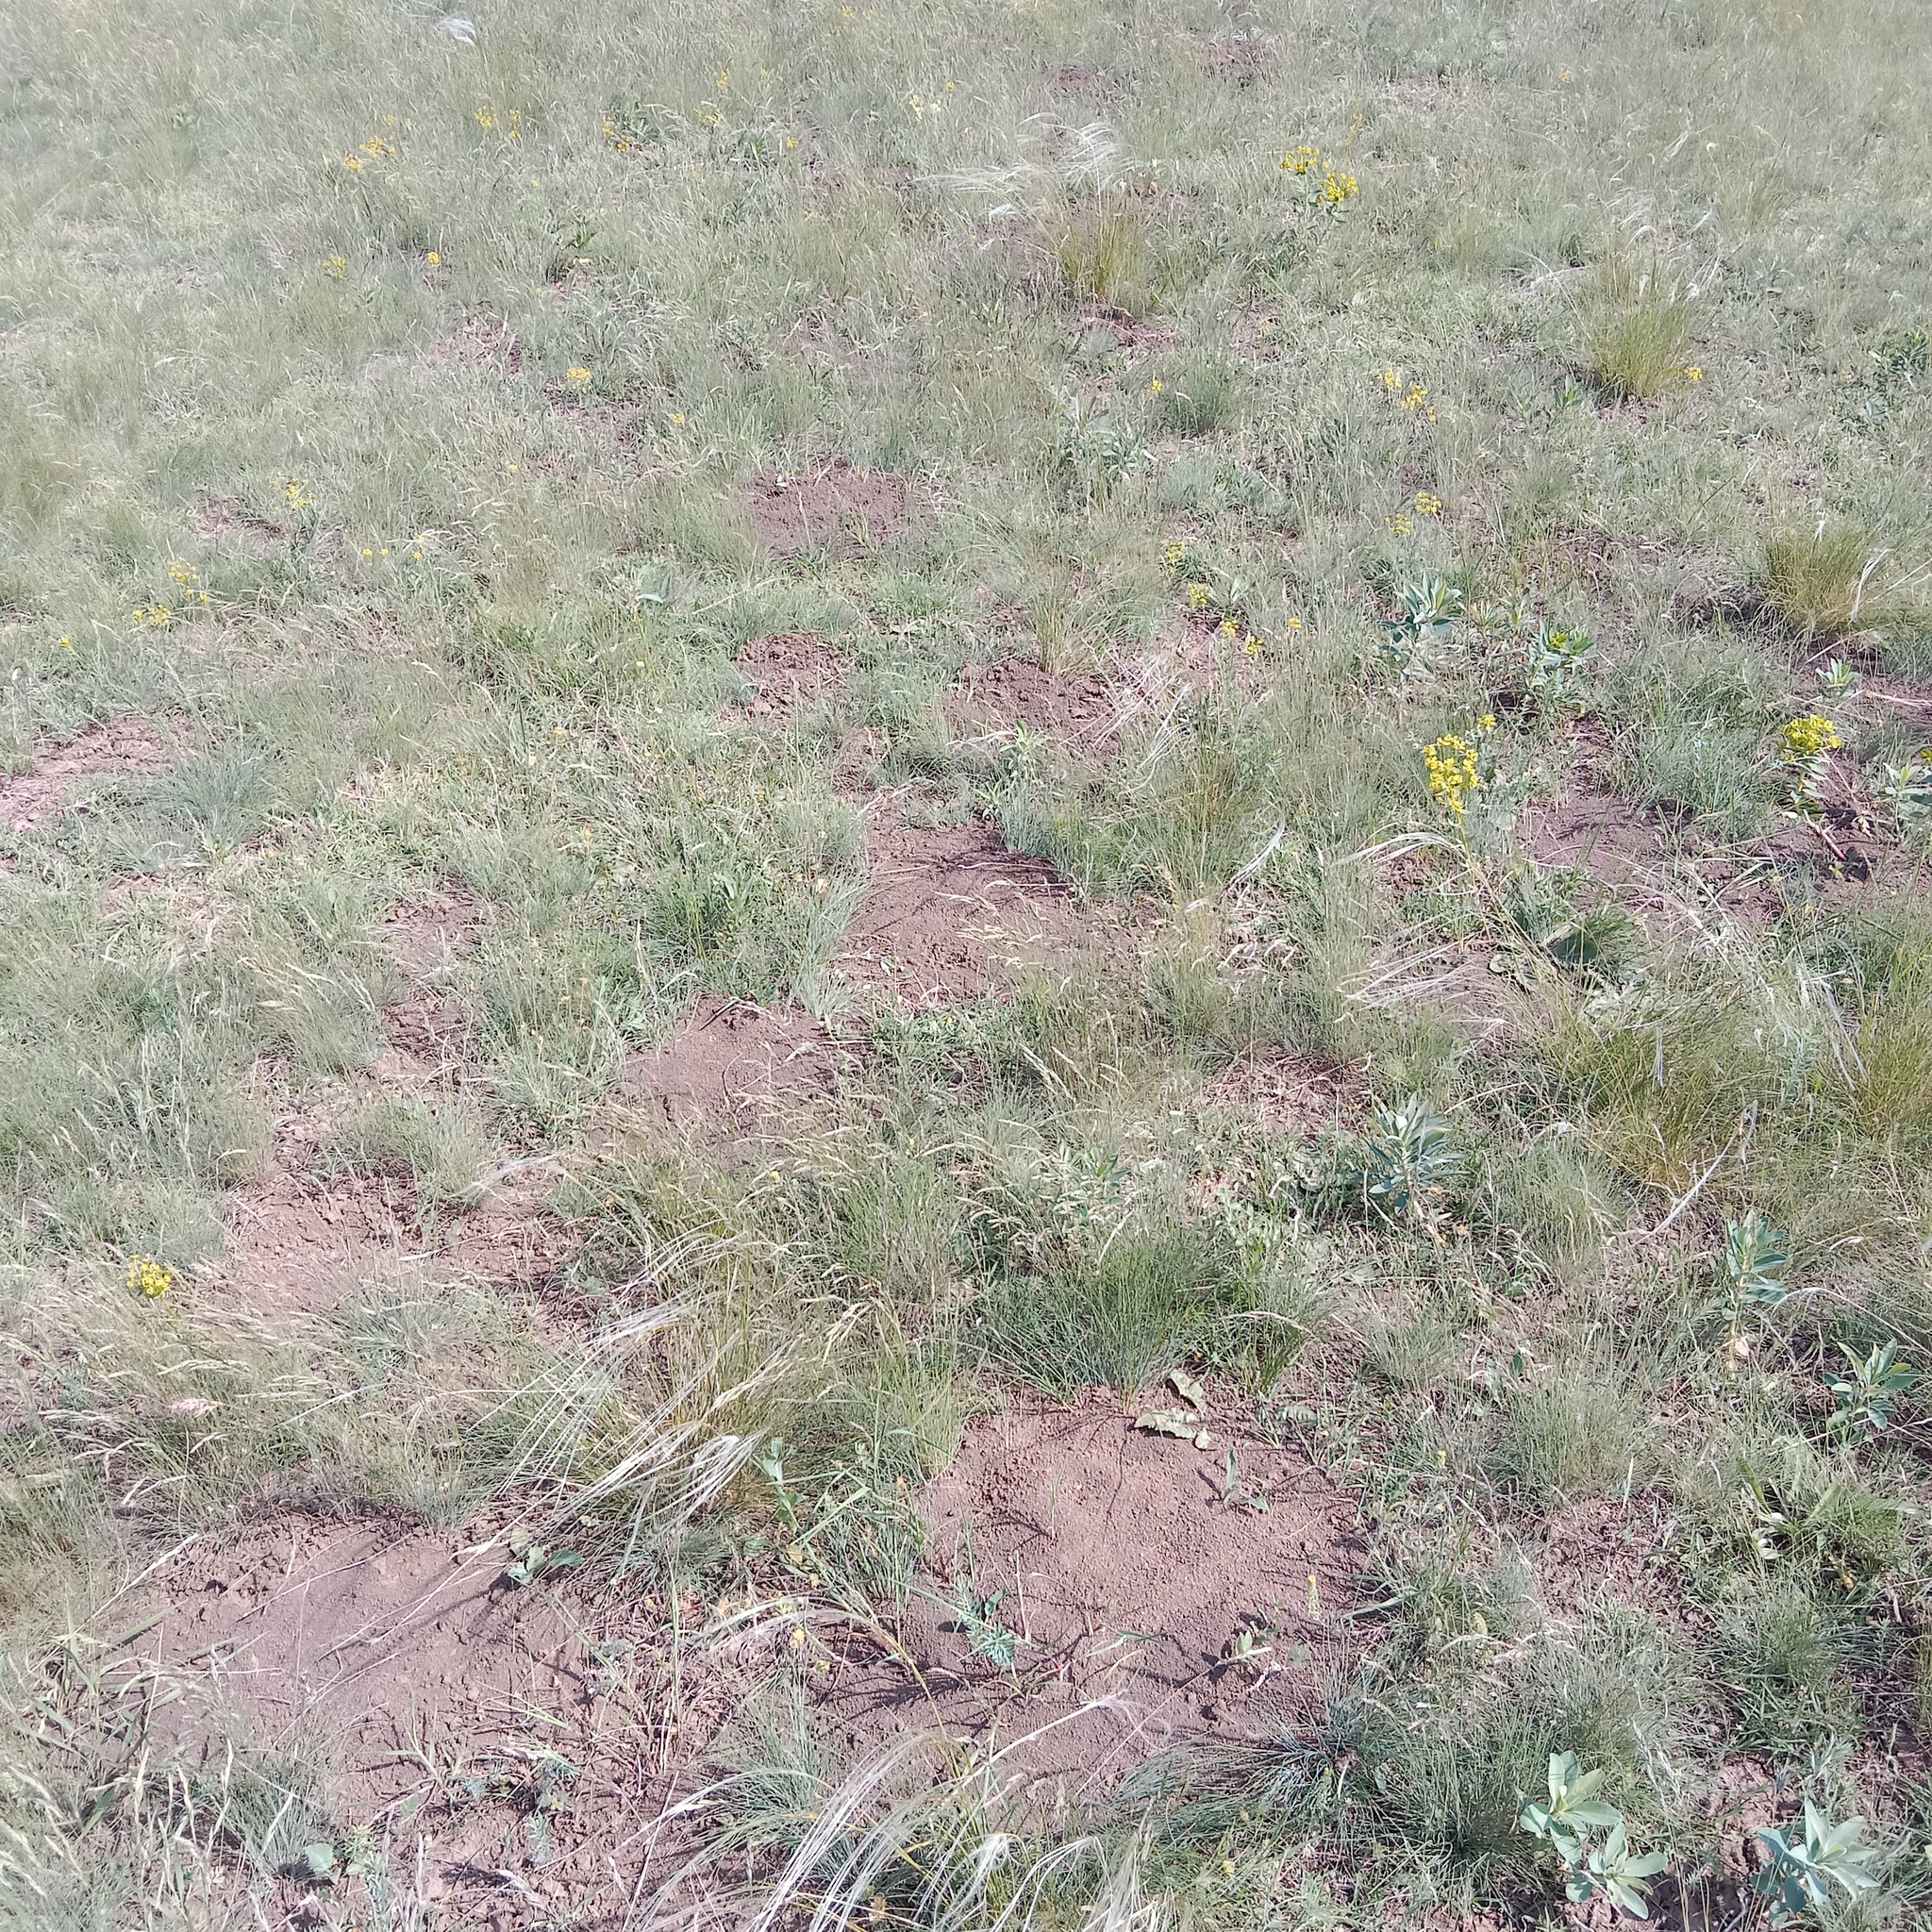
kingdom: Animalia
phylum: Chordata
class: Mammalia
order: Rodentia
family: Spalacidae
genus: Spalax
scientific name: Spalax leucodon
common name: Lesser blind mole rat
